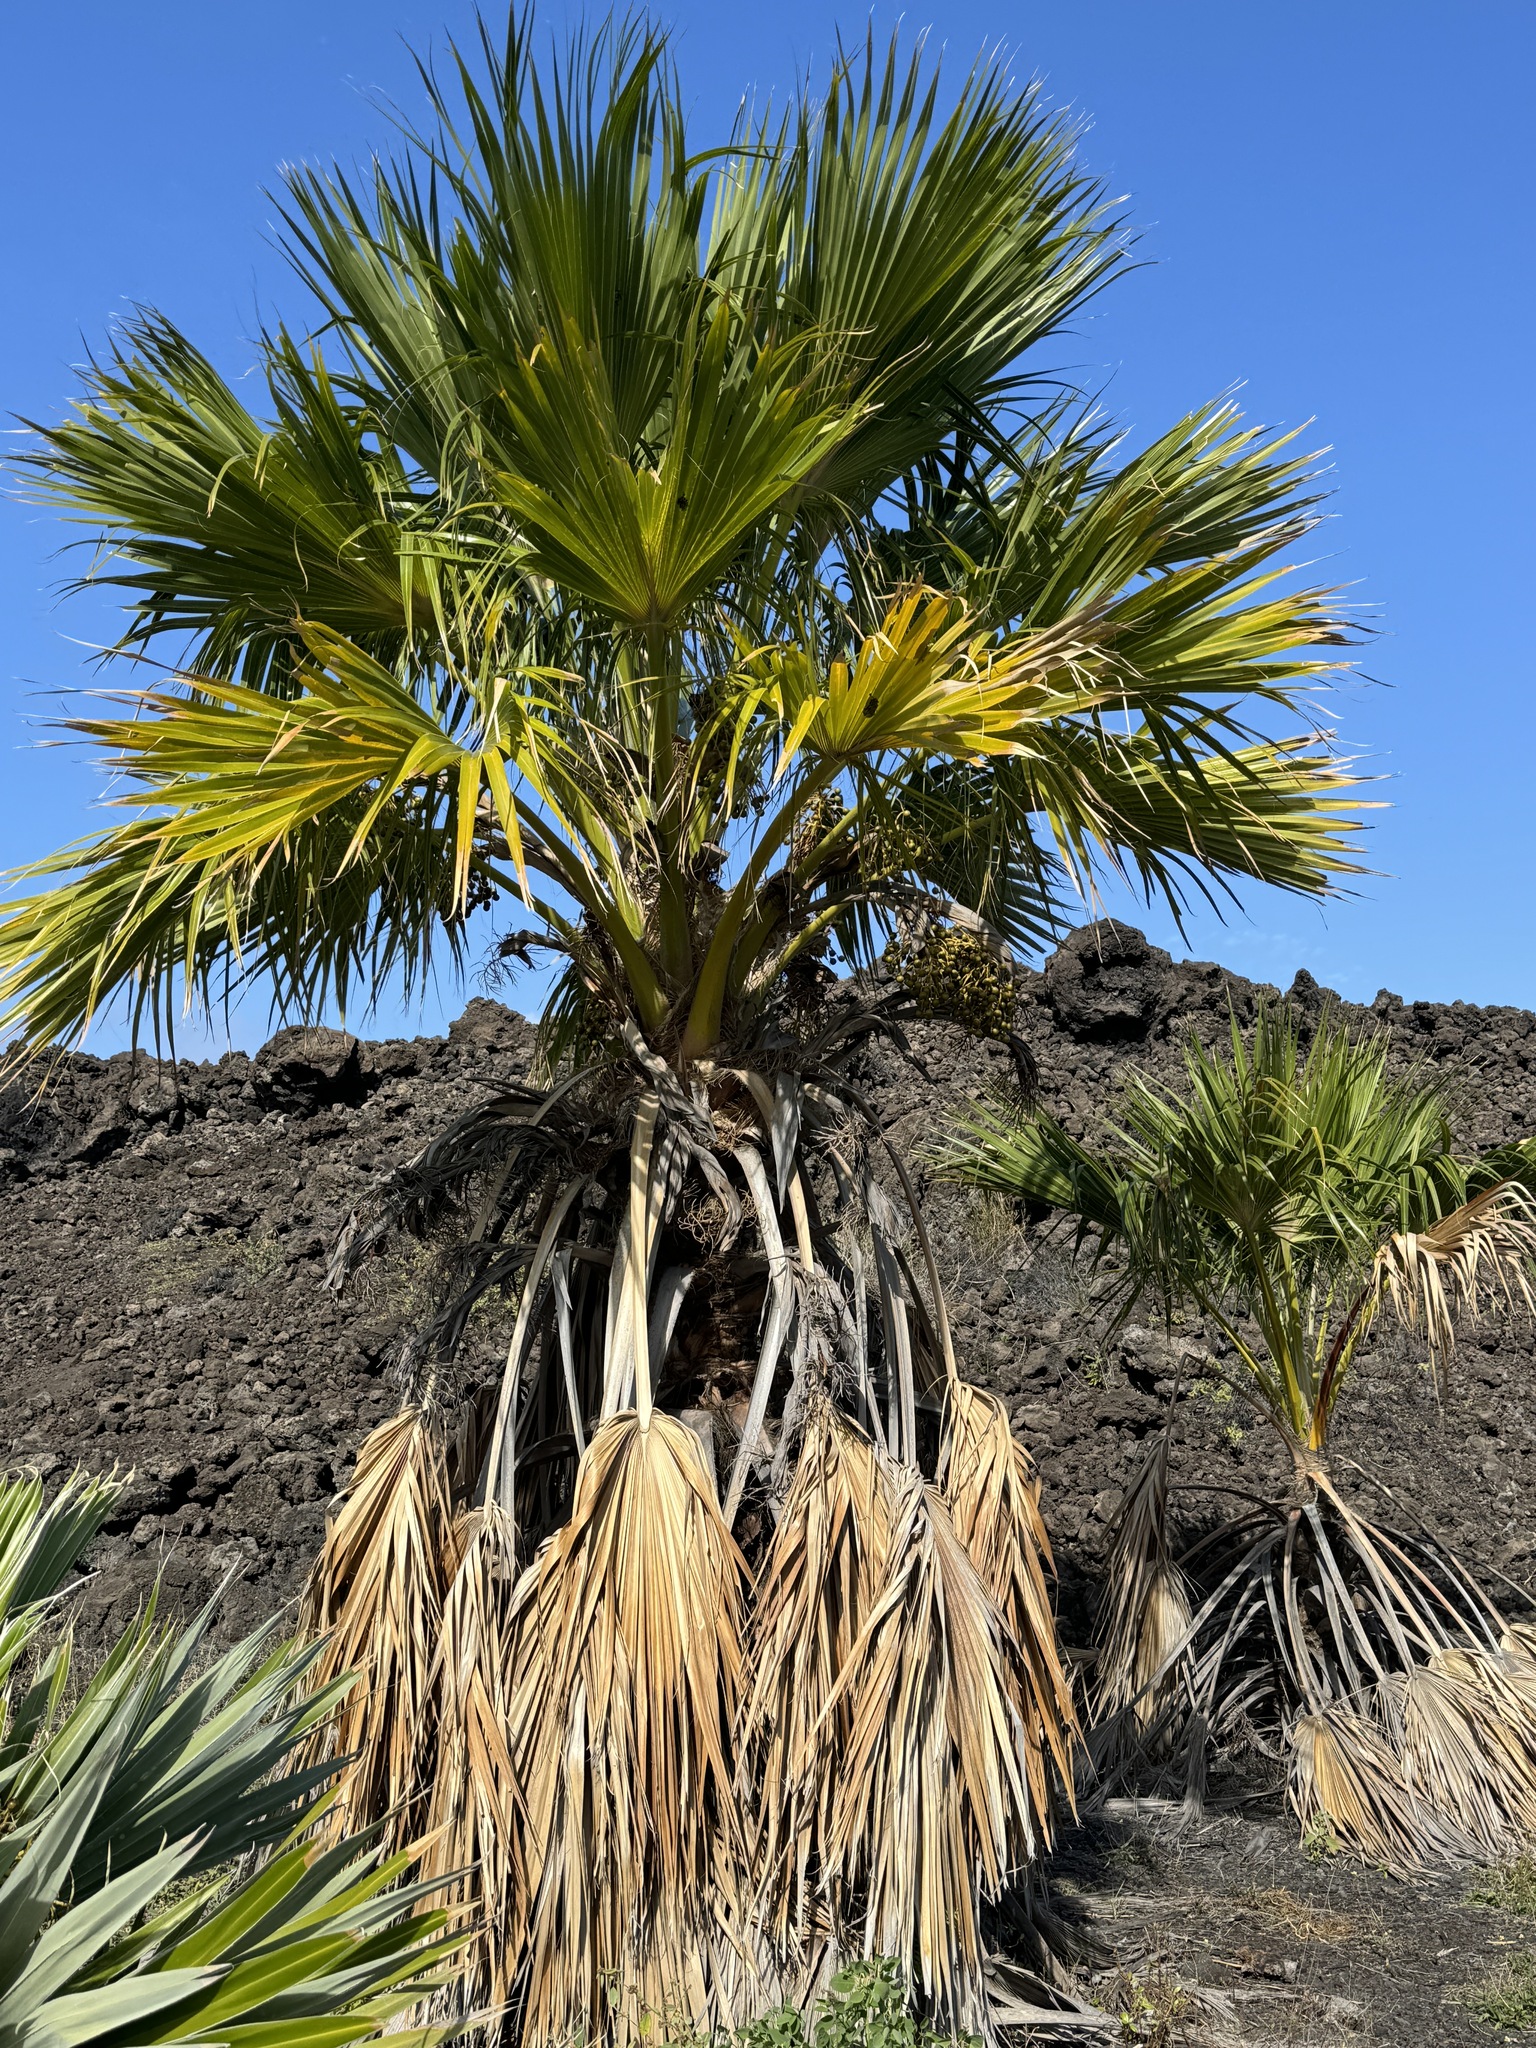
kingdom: Plantae
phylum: Tracheophyta
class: Liliopsida
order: Arecales
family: Arecaceae
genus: Pritchardia
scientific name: Pritchardia maideniana
